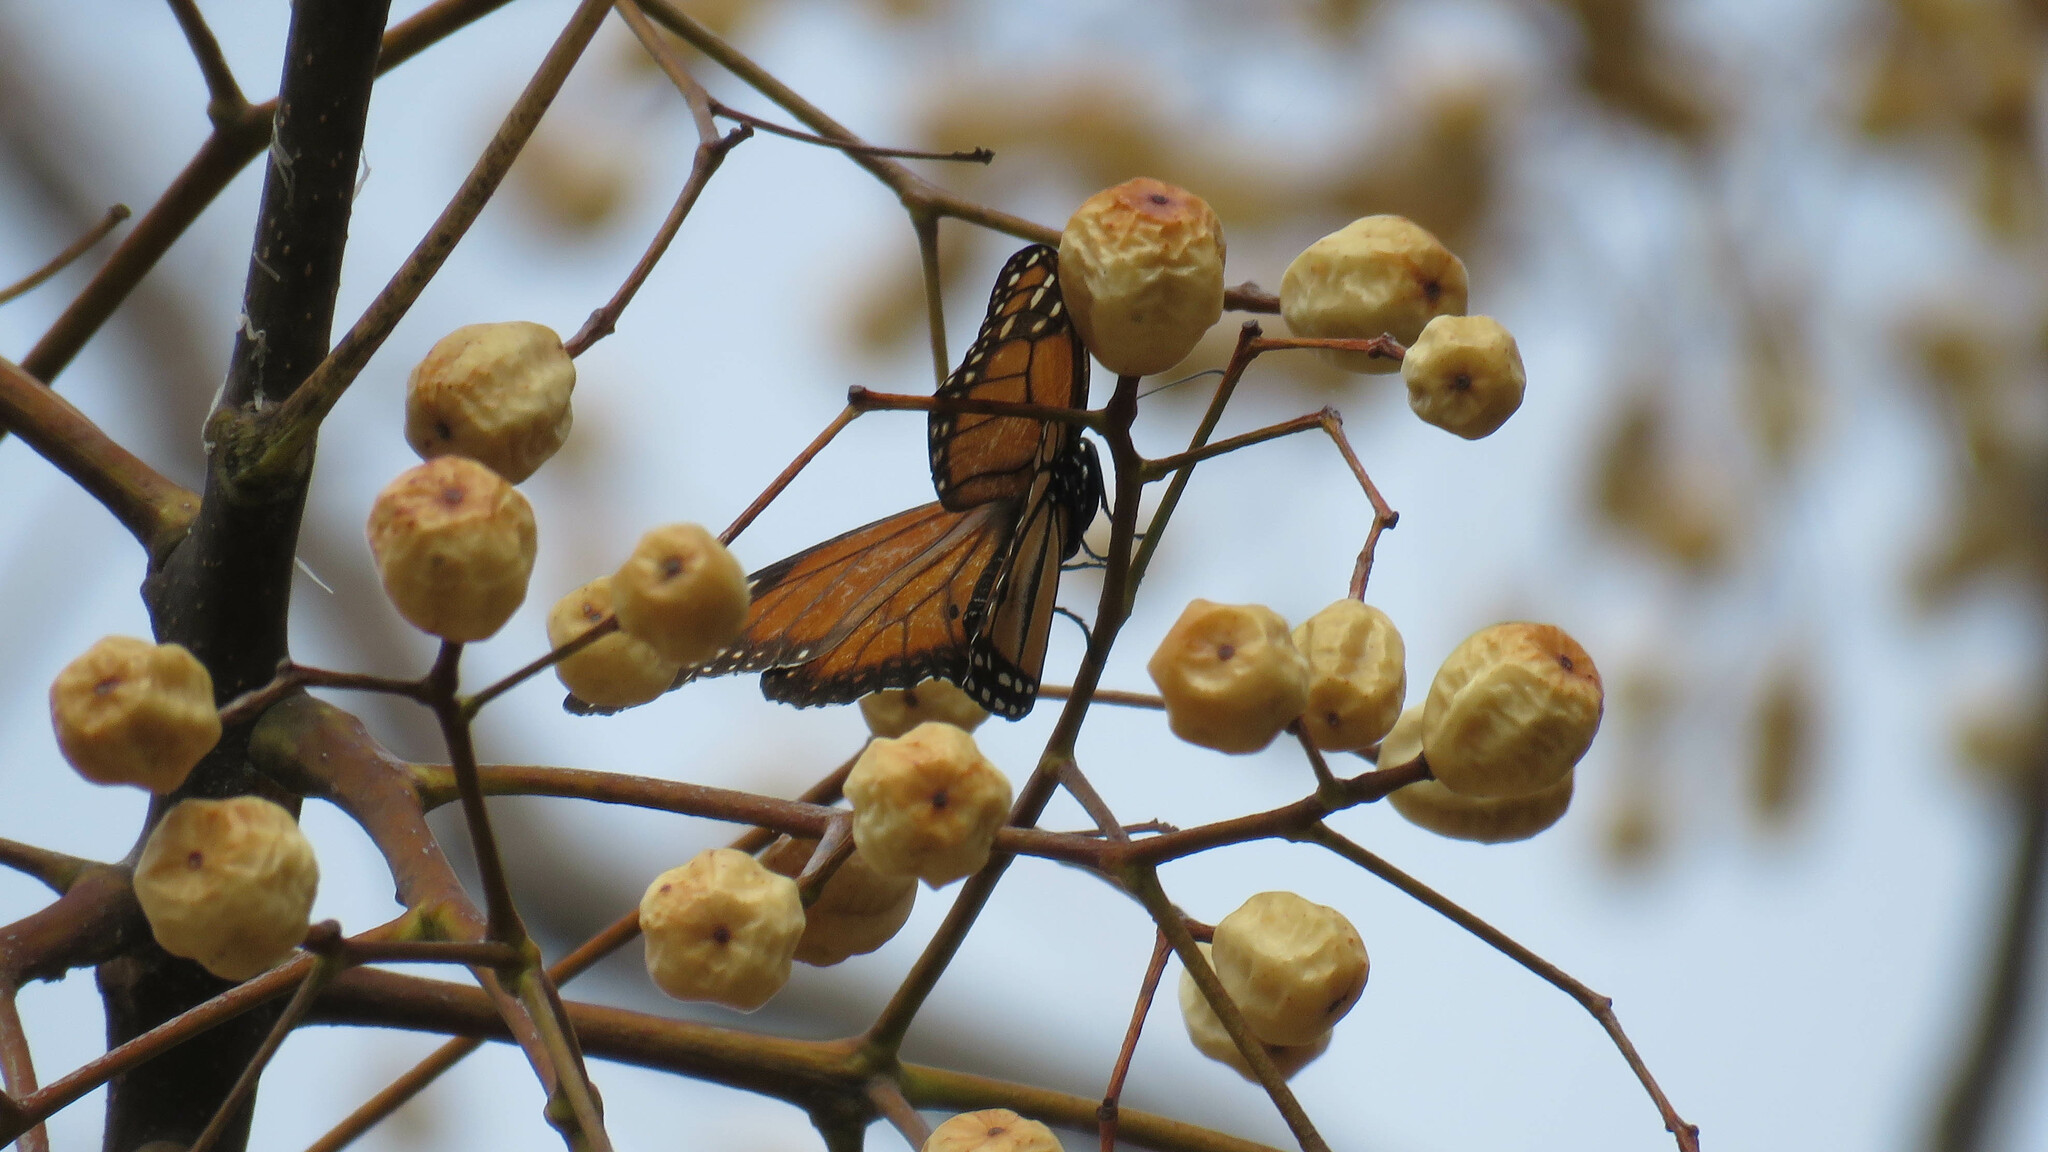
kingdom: Animalia
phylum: Arthropoda
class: Insecta
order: Lepidoptera
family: Nymphalidae
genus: Danaus
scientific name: Danaus erippus
